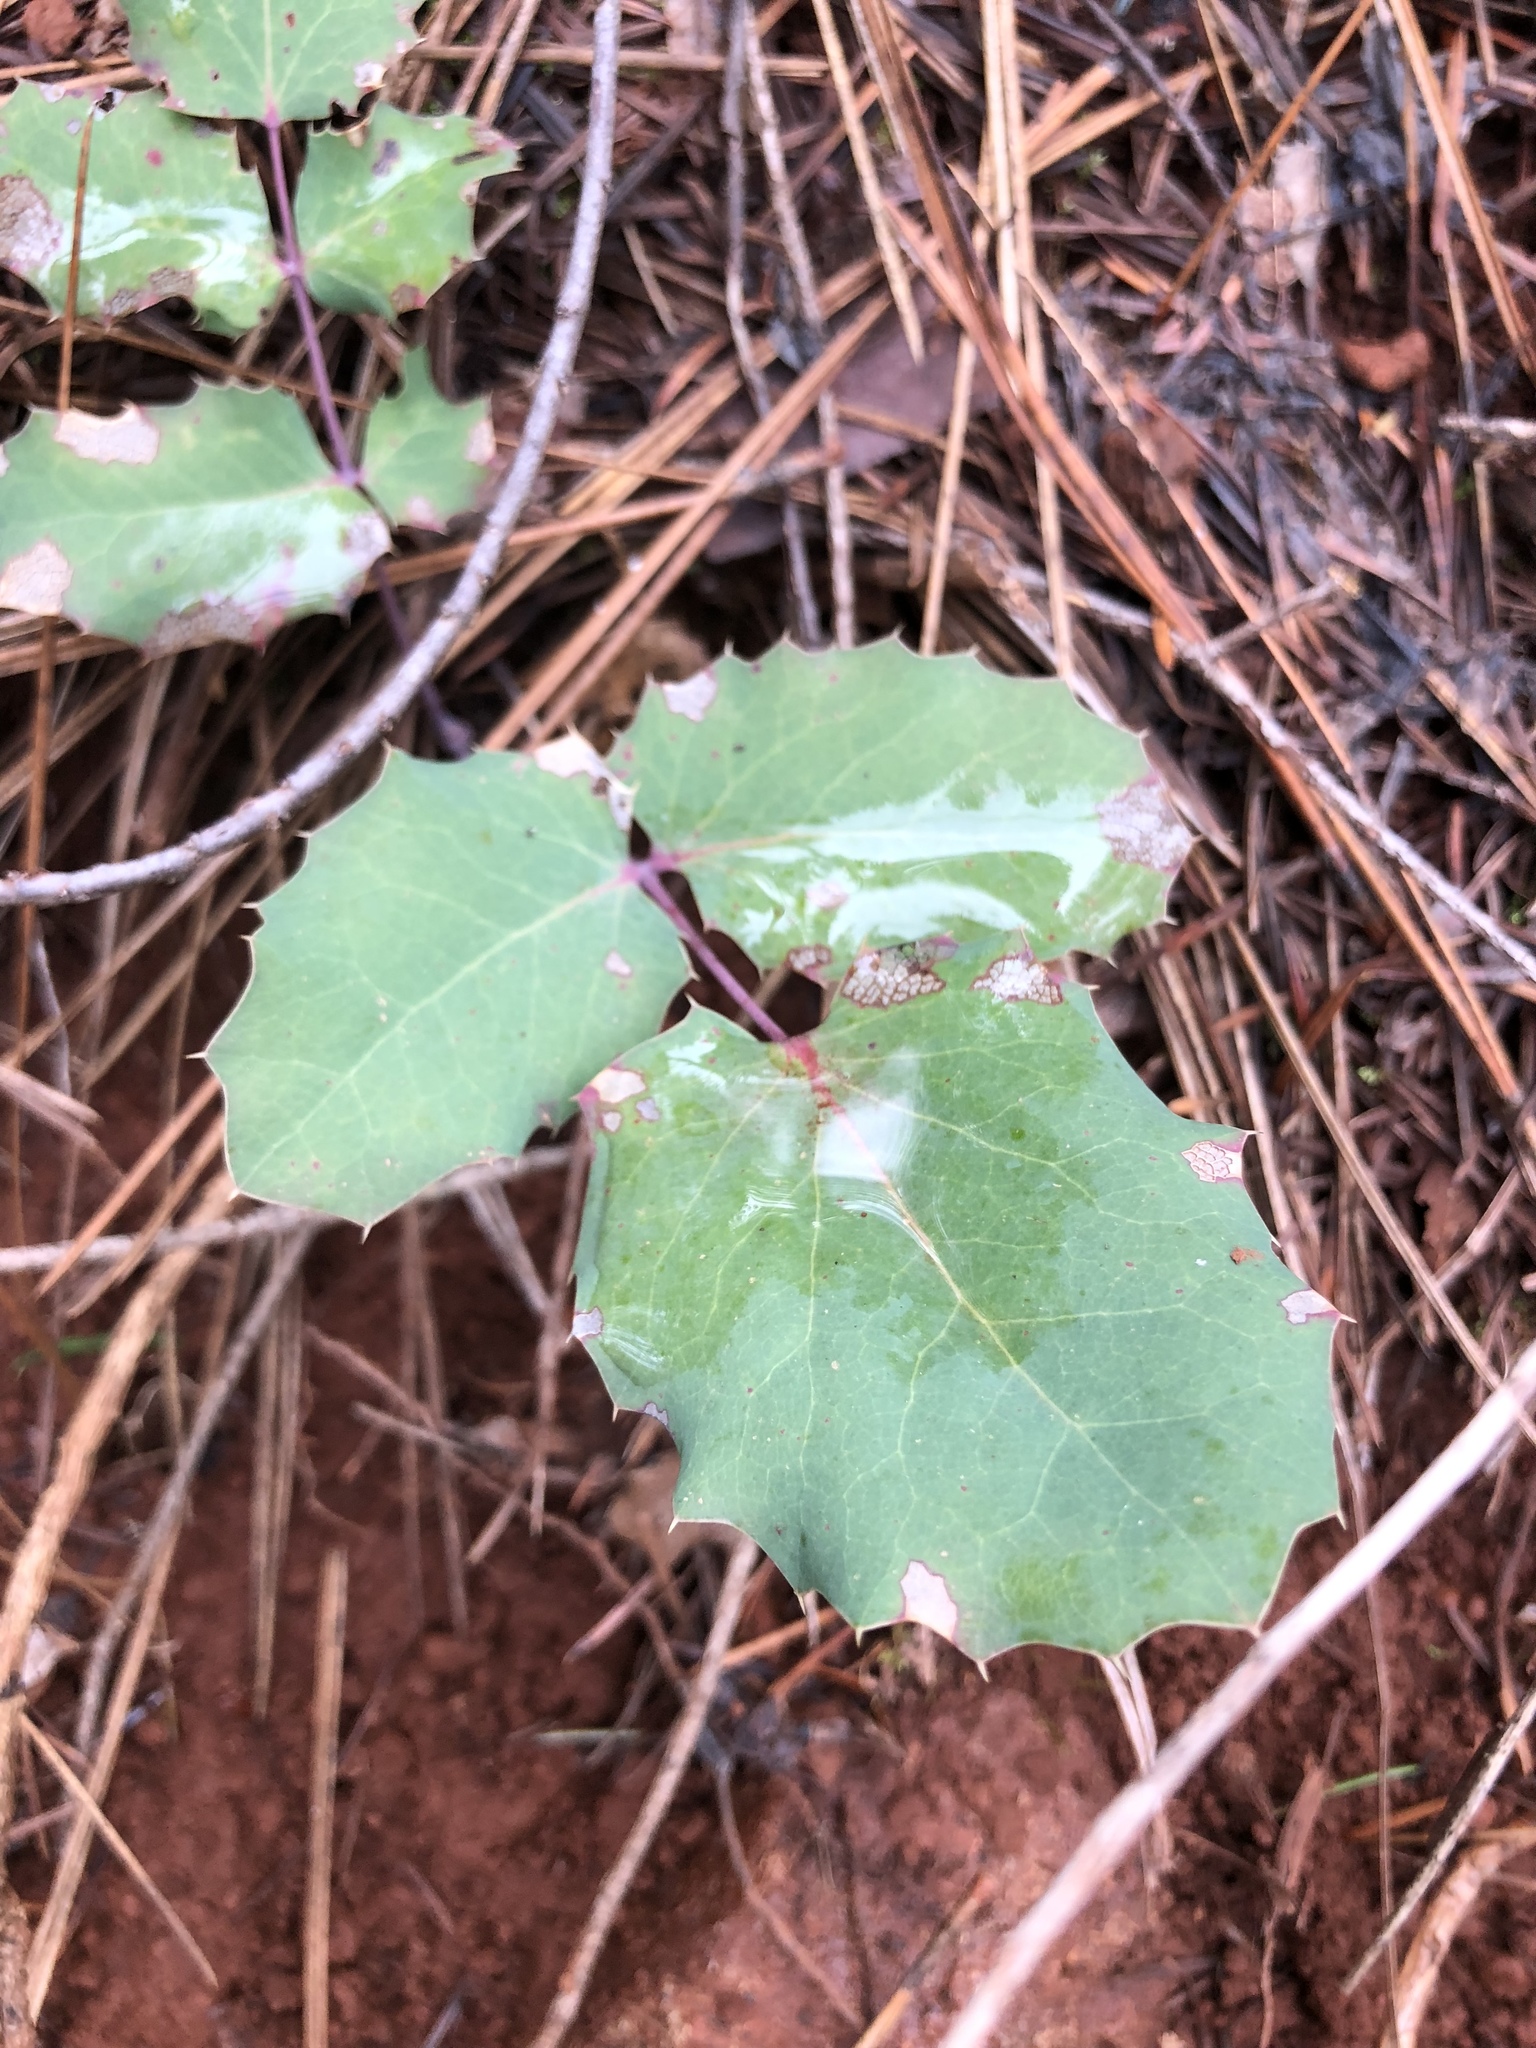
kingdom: Plantae
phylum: Tracheophyta
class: Magnoliopsida
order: Ranunculales
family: Berberidaceae
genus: Mahonia
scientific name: Mahonia repens
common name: Creeping oregon-grape
